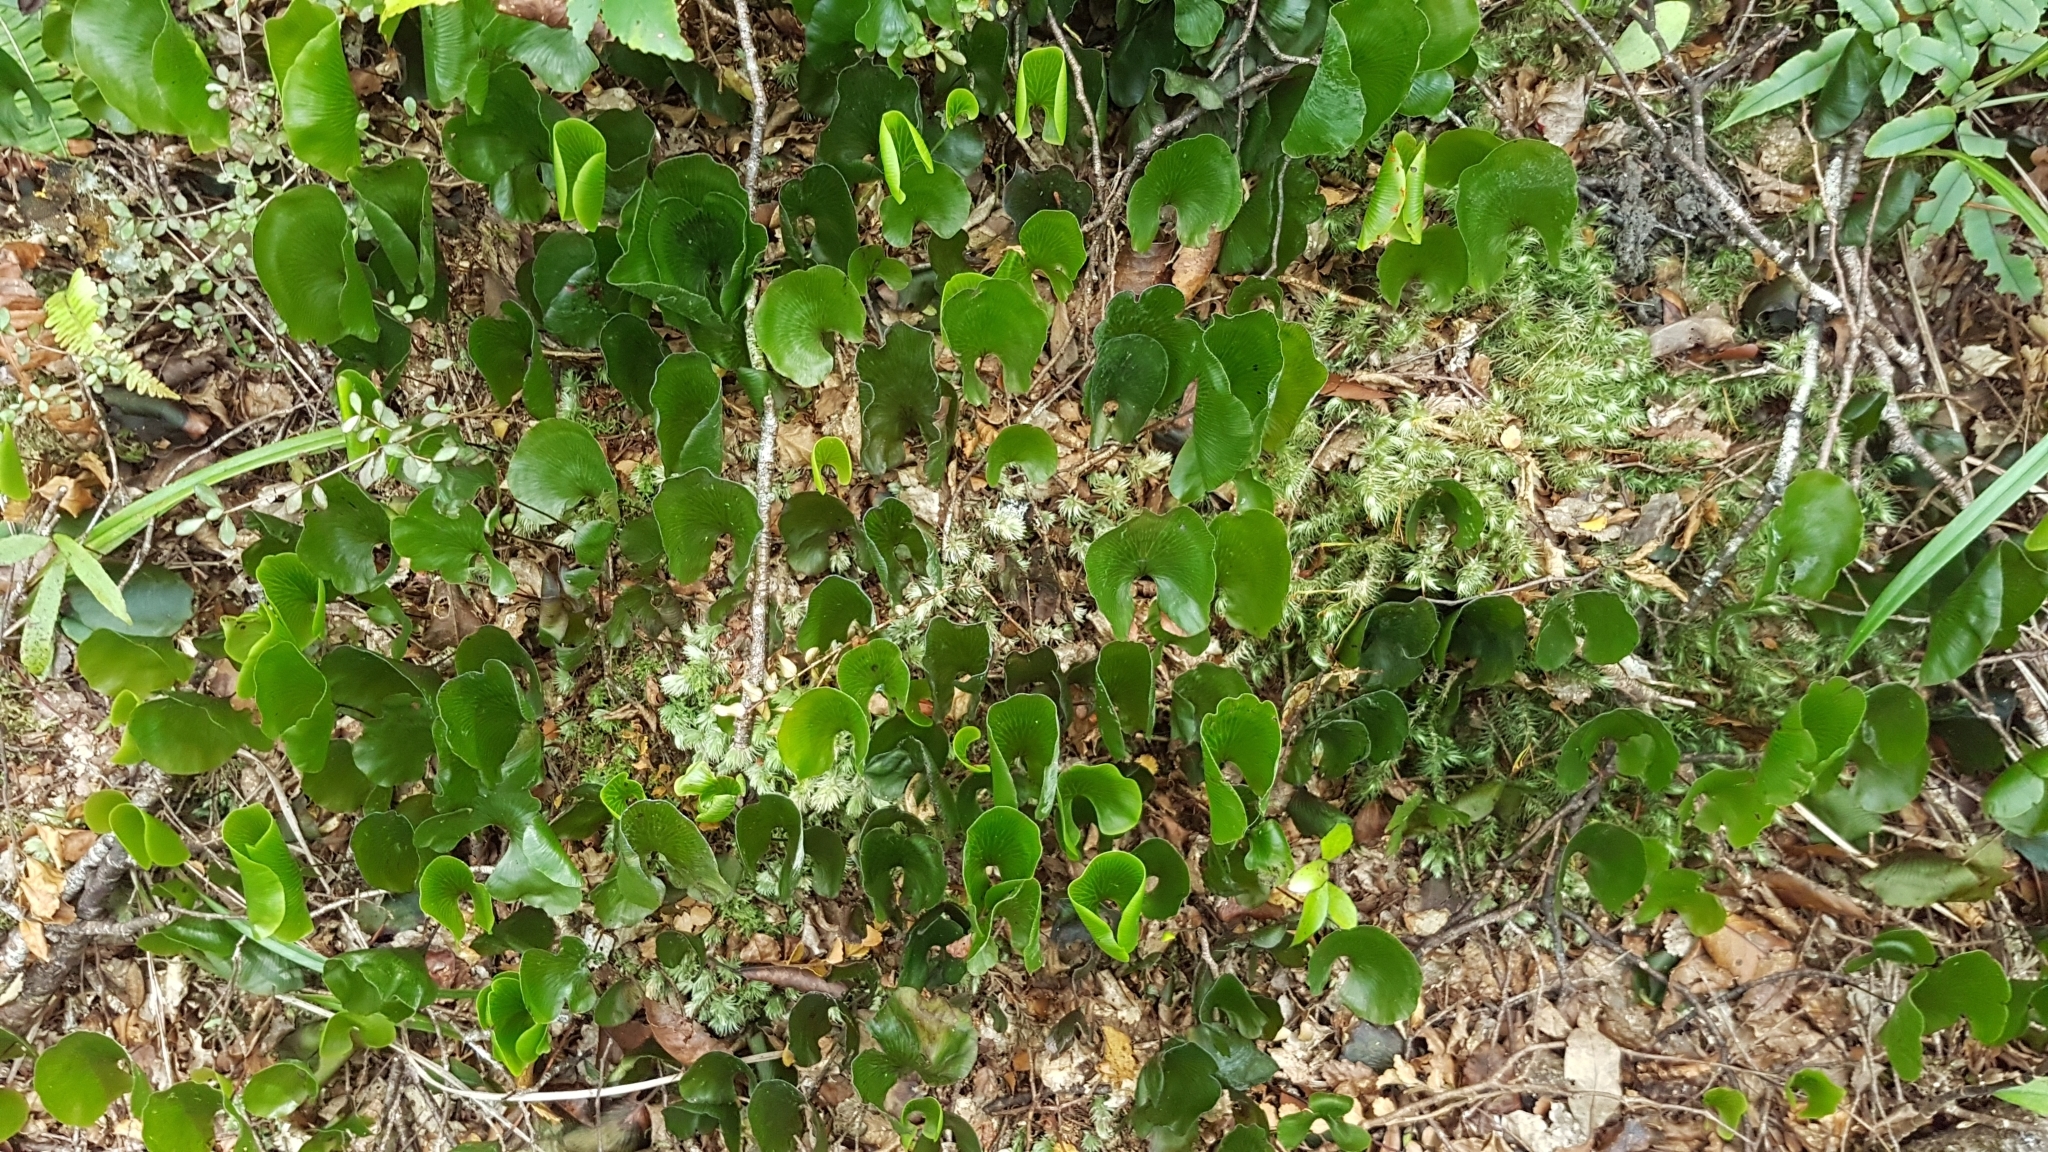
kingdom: Plantae
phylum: Tracheophyta
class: Polypodiopsida
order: Hymenophyllales
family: Hymenophyllaceae
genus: Hymenophyllum
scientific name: Hymenophyllum nephrophyllum
